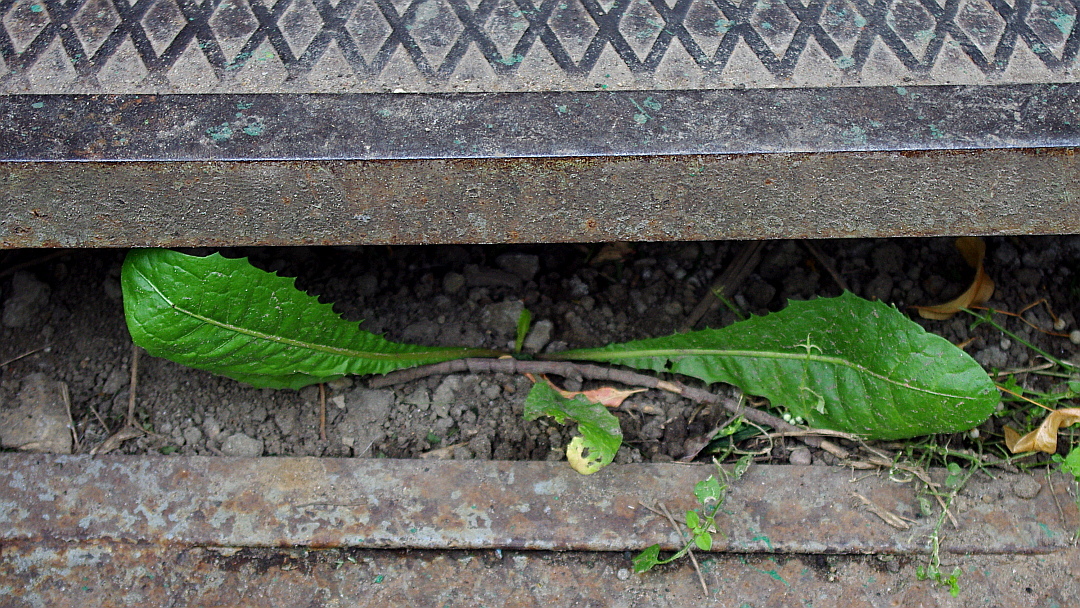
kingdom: Plantae
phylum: Tracheophyta
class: Magnoliopsida
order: Asterales
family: Asteraceae
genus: Taraxacum
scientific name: Taraxacum officinale
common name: Common dandelion
